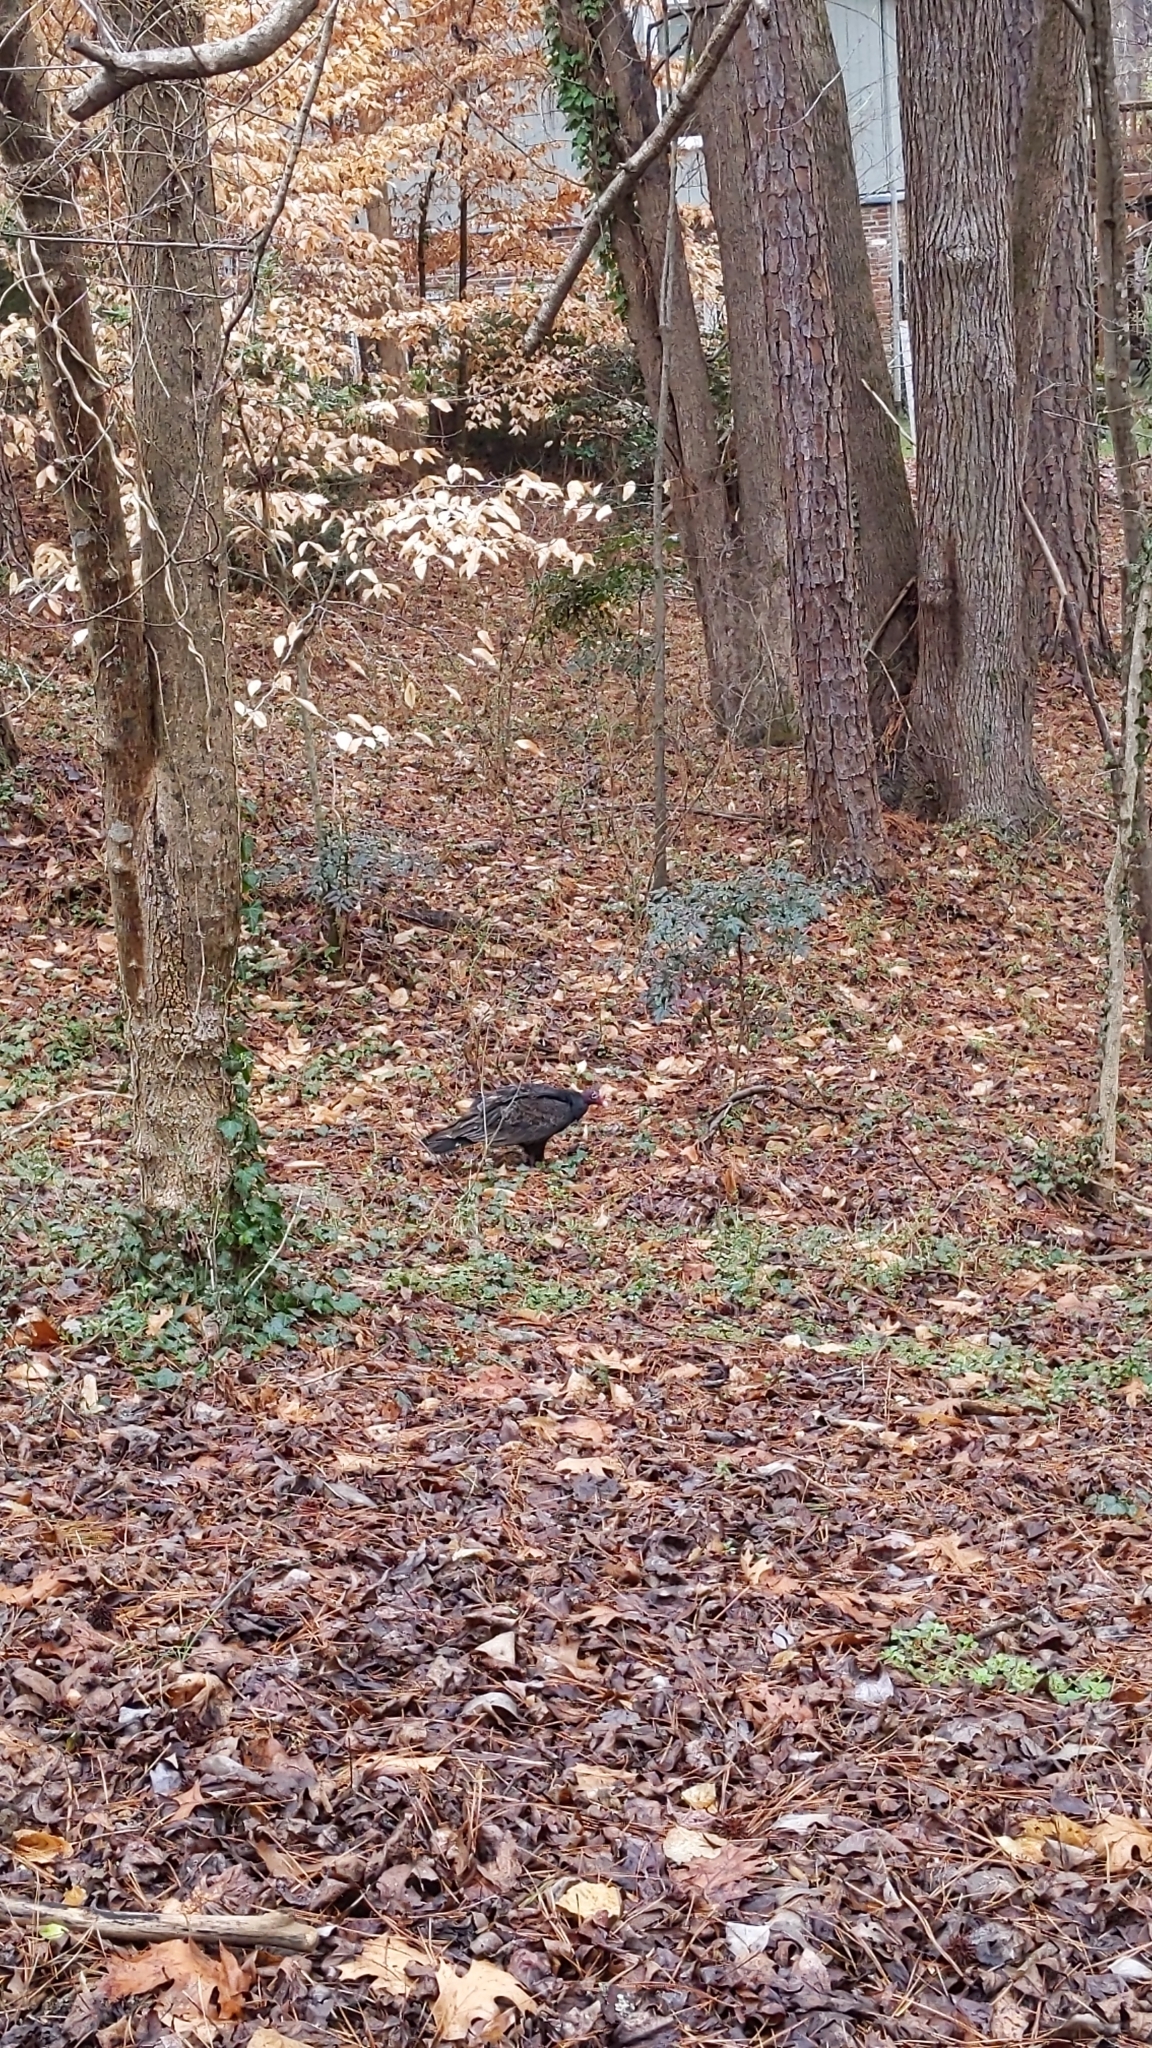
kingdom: Animalia
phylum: Chordata
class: Aves
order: Accipitriformes
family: Cathartidae
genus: Cathartes
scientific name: Cathartes aura
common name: Turkey vulture
